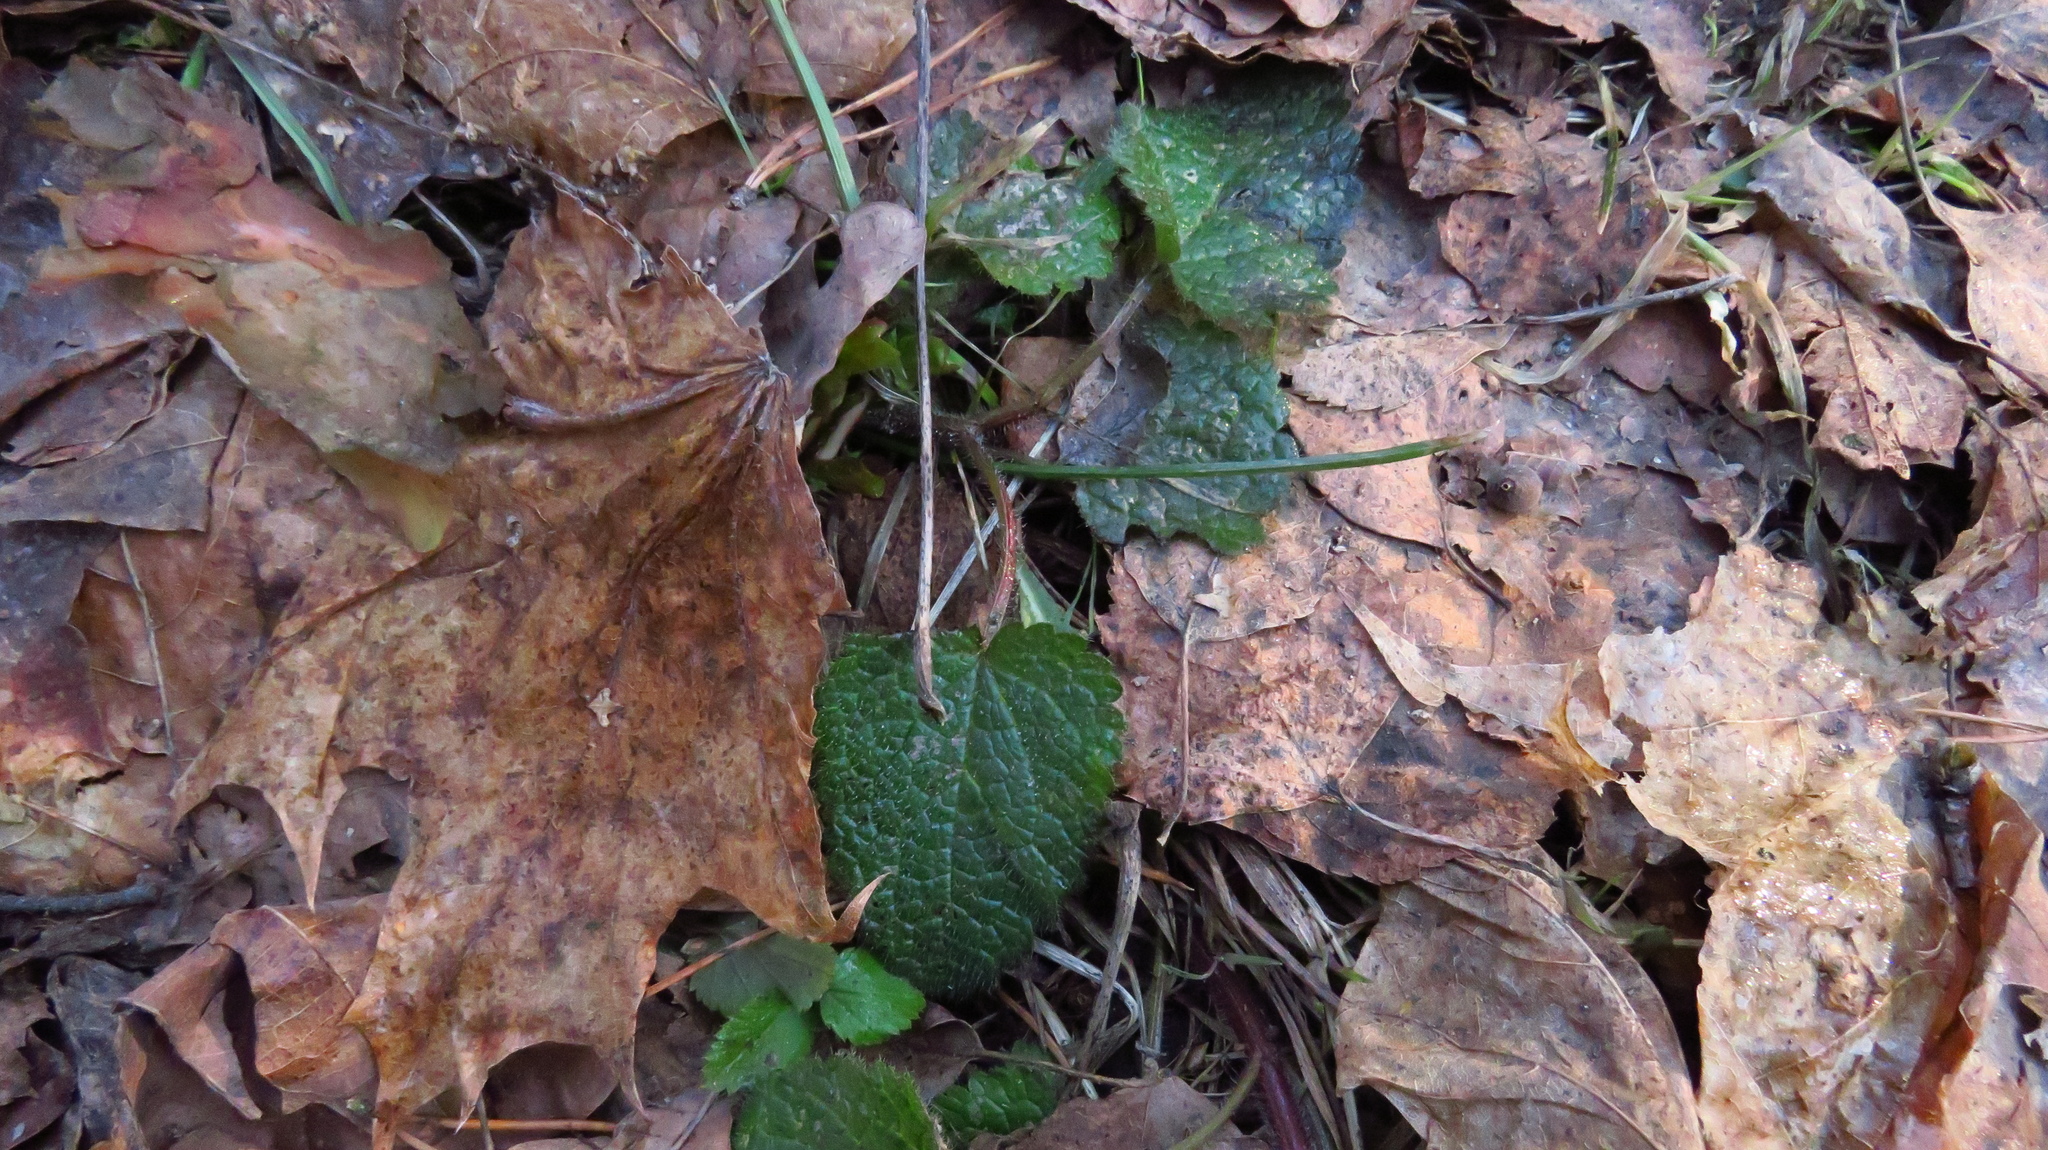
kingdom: Plantae
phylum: Tracheophyta
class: Magnoliopsida
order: Lamiales
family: Lamiaceae
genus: Lamium
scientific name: Lamium galeobdolon
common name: Yellow archangel
